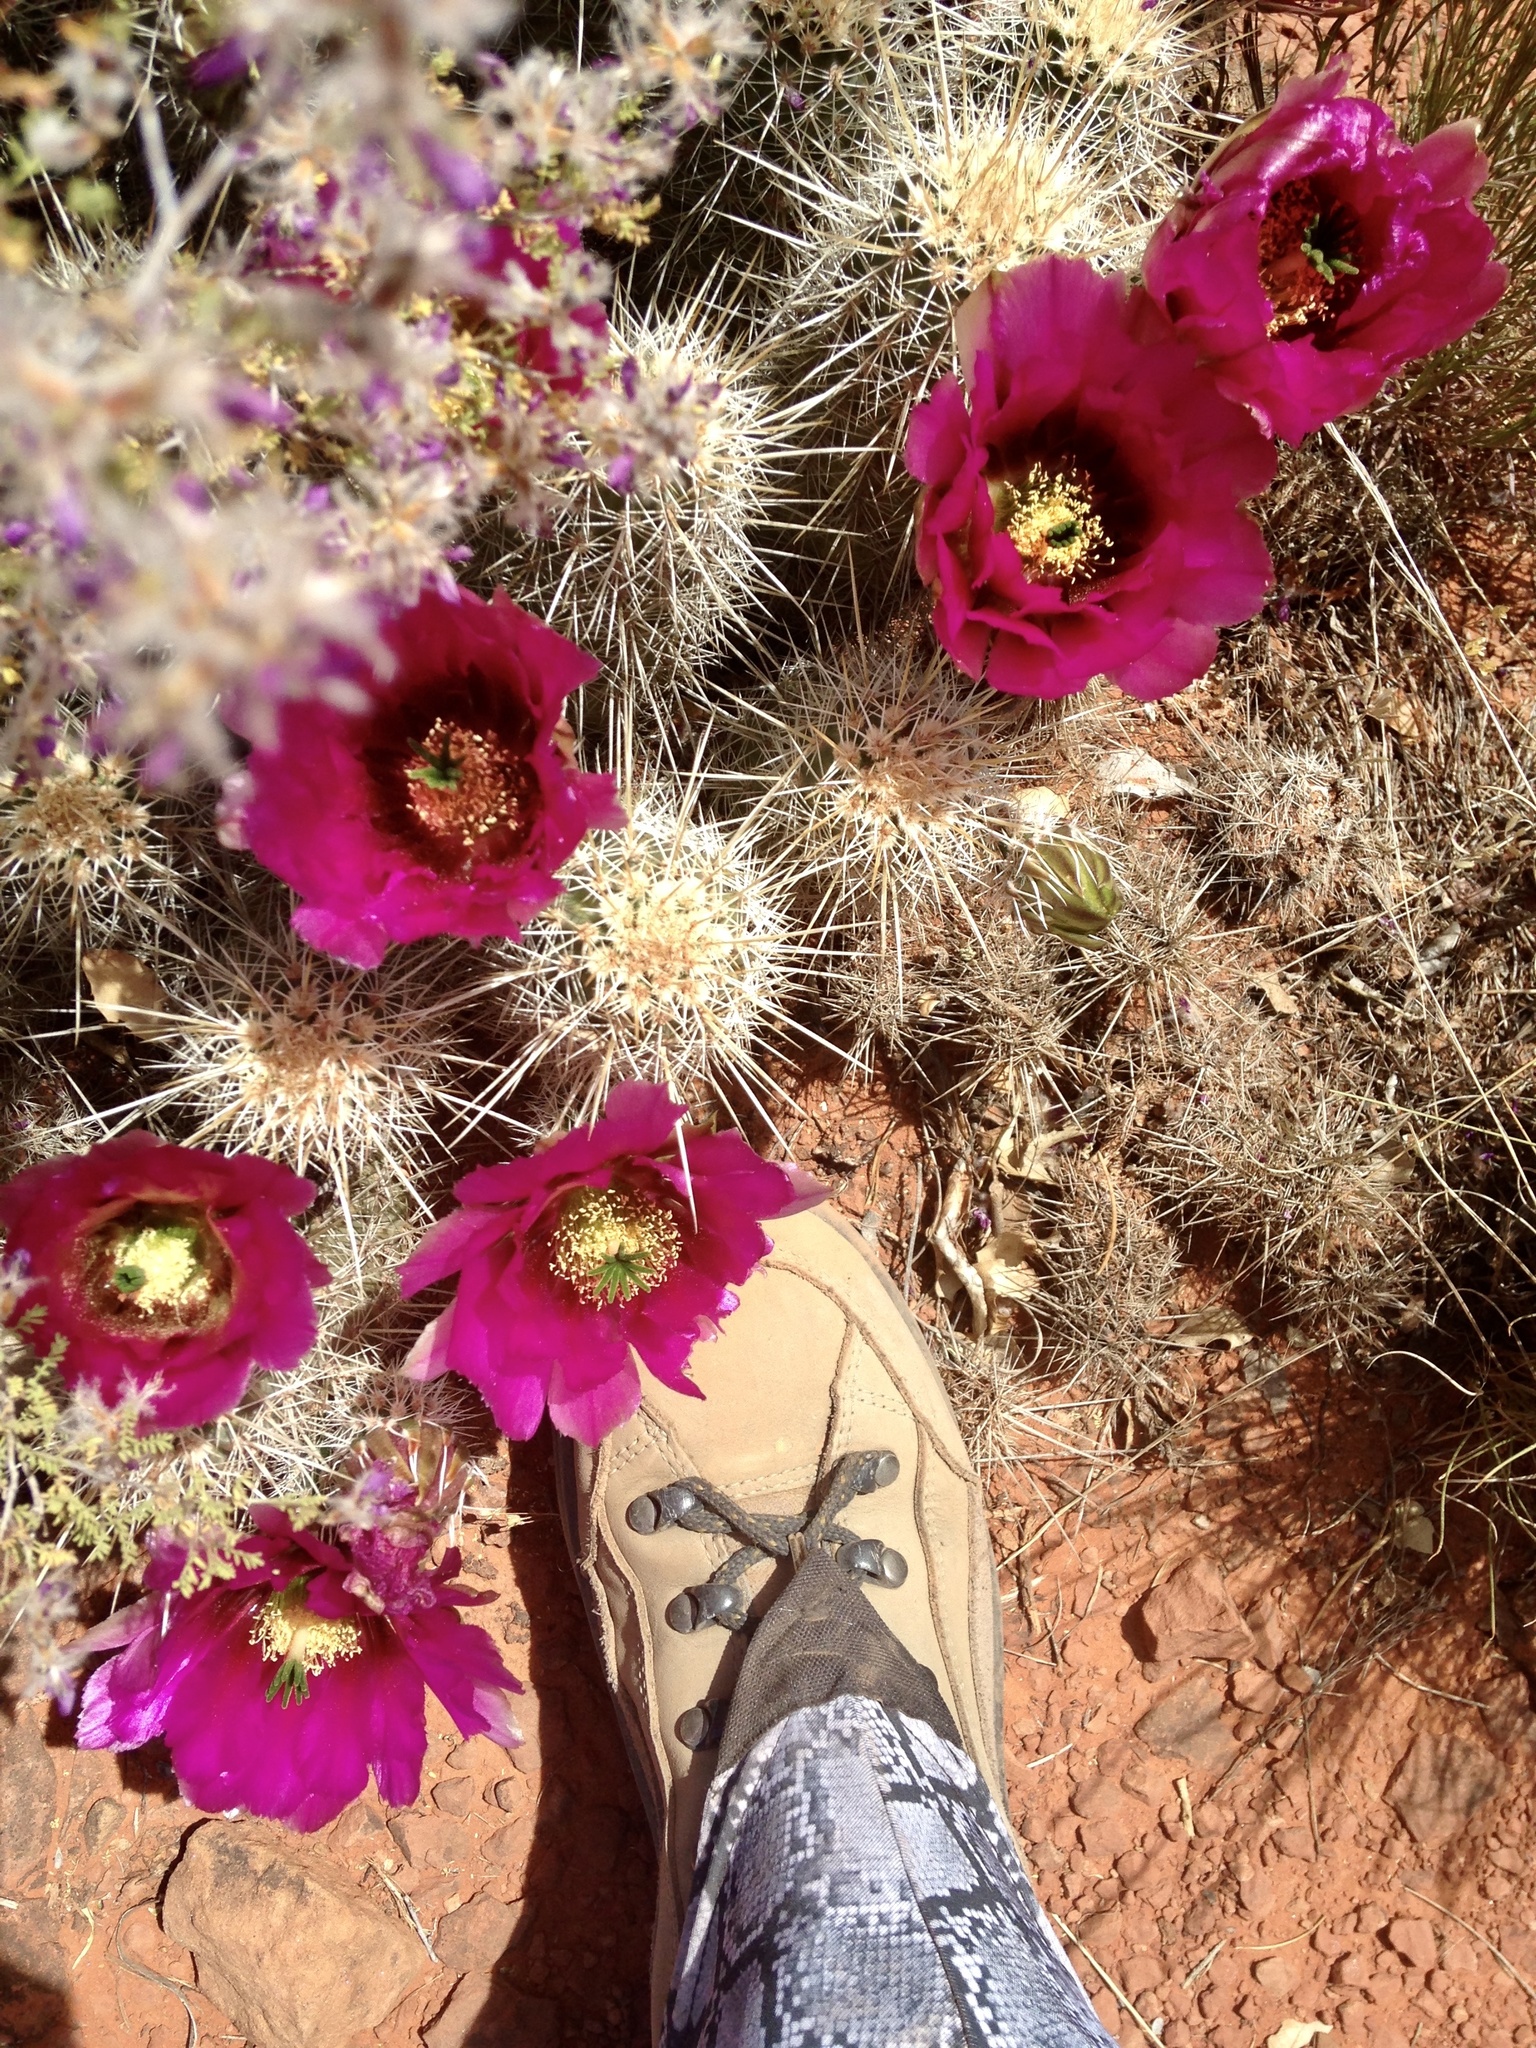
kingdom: Plantae
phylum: Tracheophyta
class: Magnoliopsida
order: Caryophyllales
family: Cactaceae
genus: Echinocereus
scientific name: Echinocereus fasciculatus
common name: Bundle hedgehog
